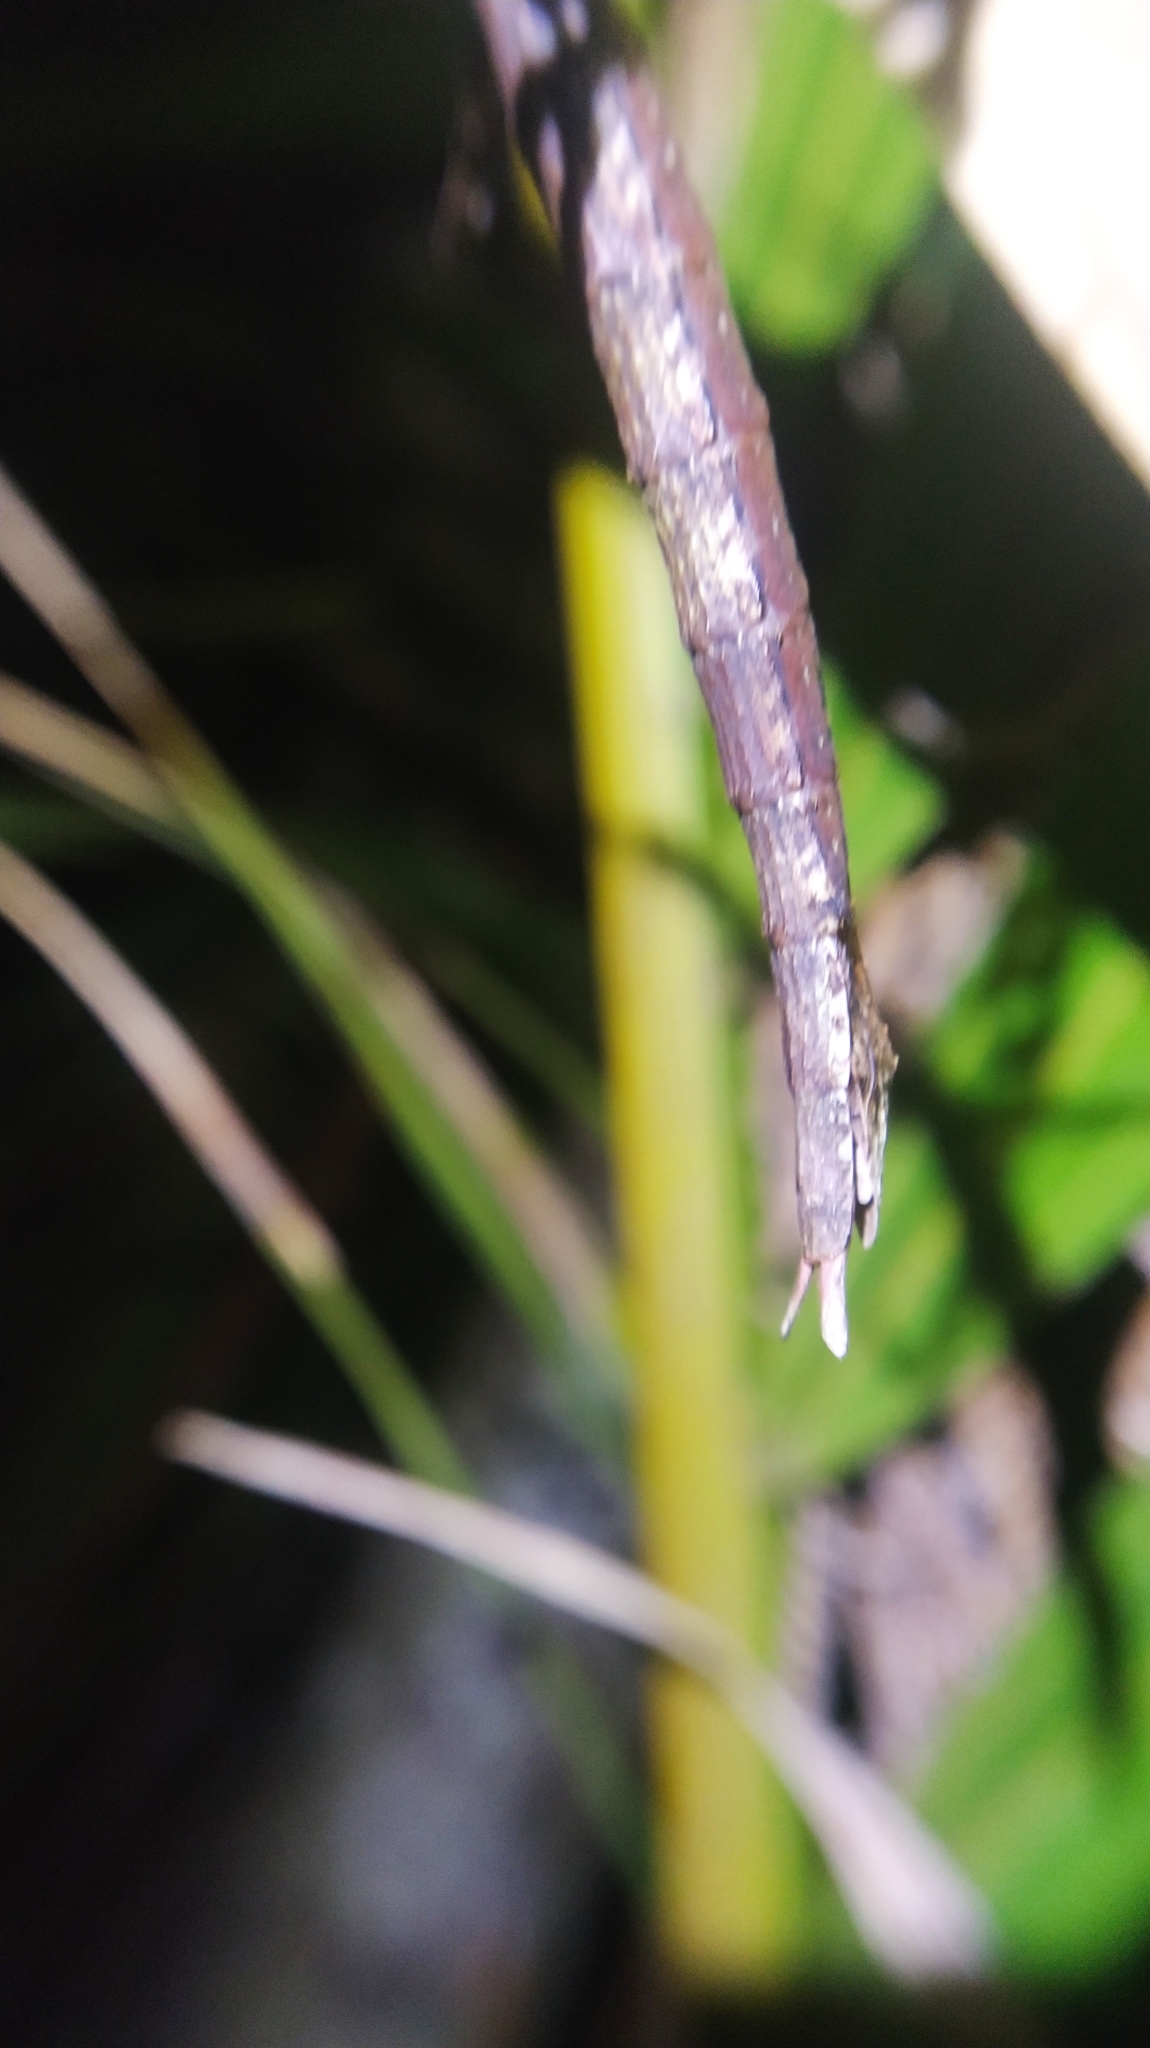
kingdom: Animalia
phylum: Arthropoda
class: Insecta
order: Phasmida
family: Phasmatidae
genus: Clitarchus
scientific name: Clitarchus hookeri
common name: Smooth stick insect
